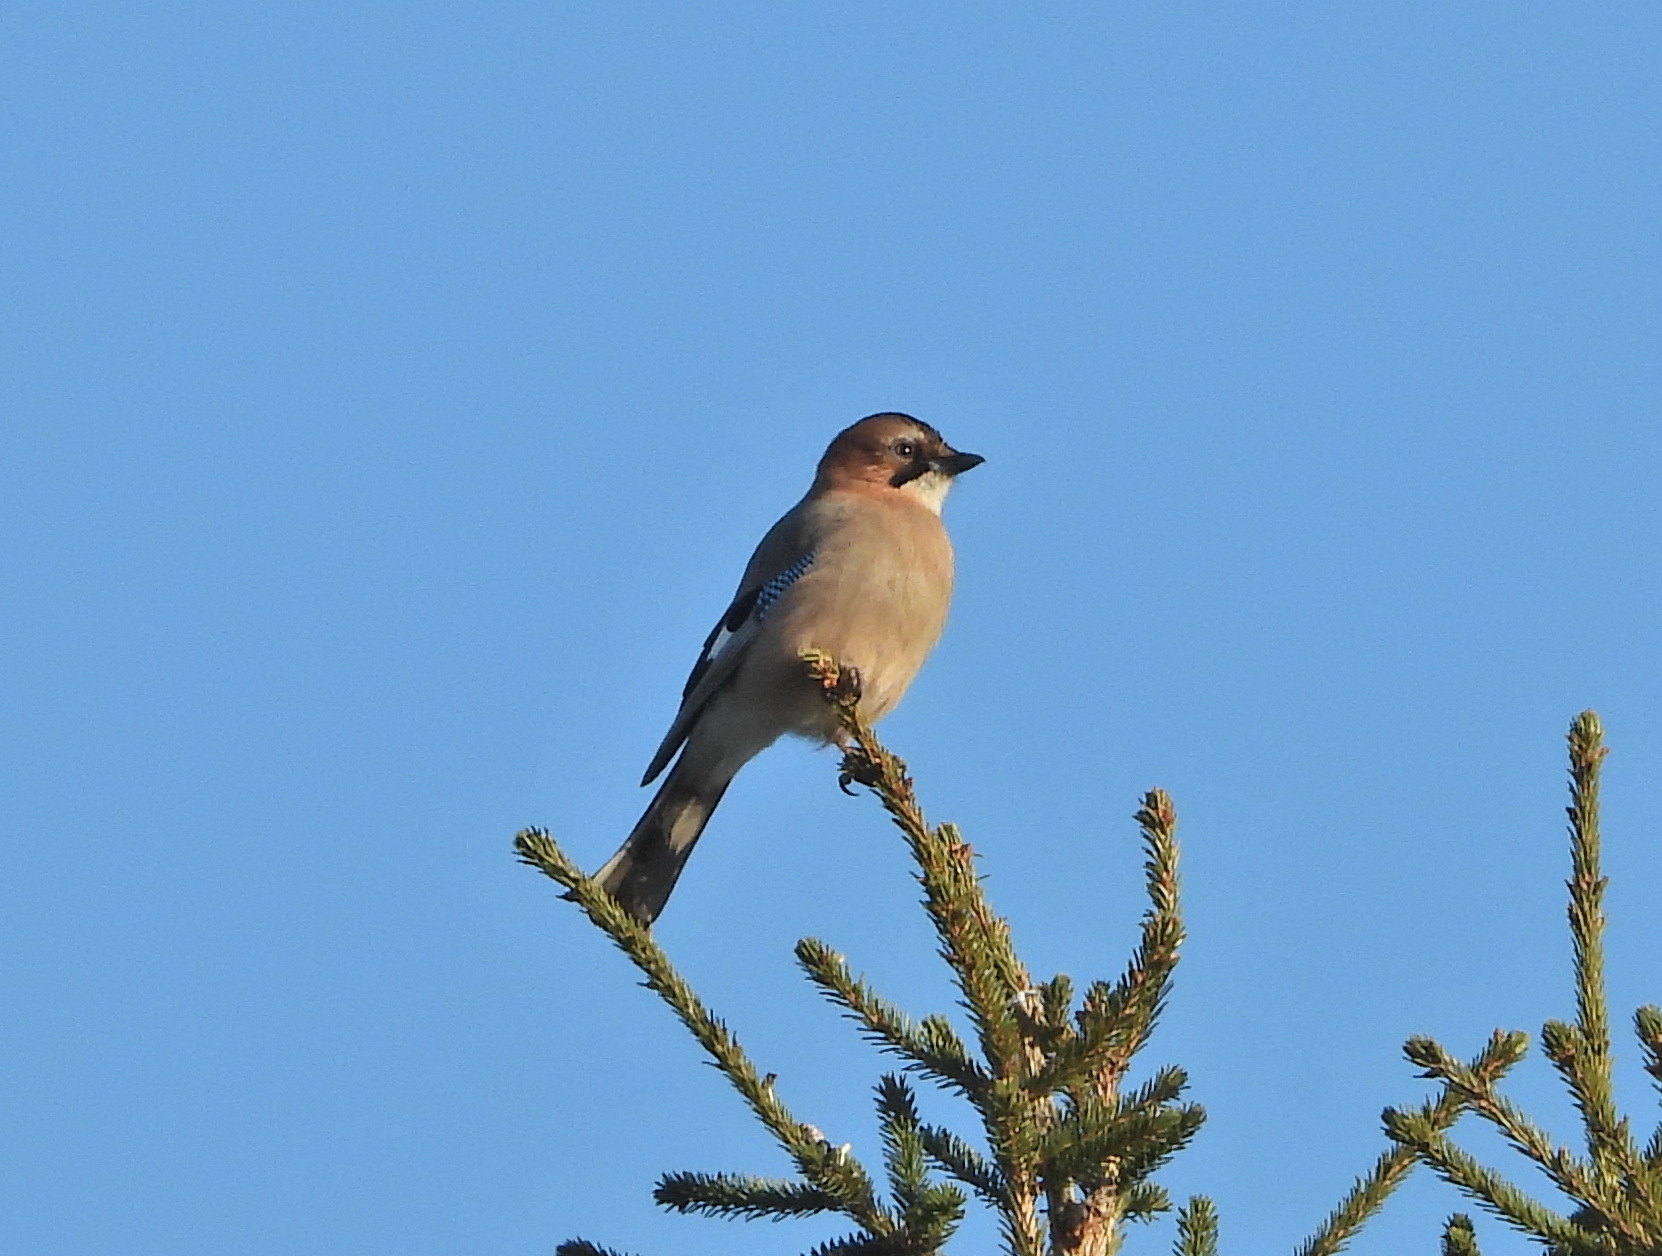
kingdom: Animalia
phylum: Chordata
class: Aves
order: Passeriformes
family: Corvidae
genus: Garrulus
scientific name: Garrulus glandarius
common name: Eurasian jay
